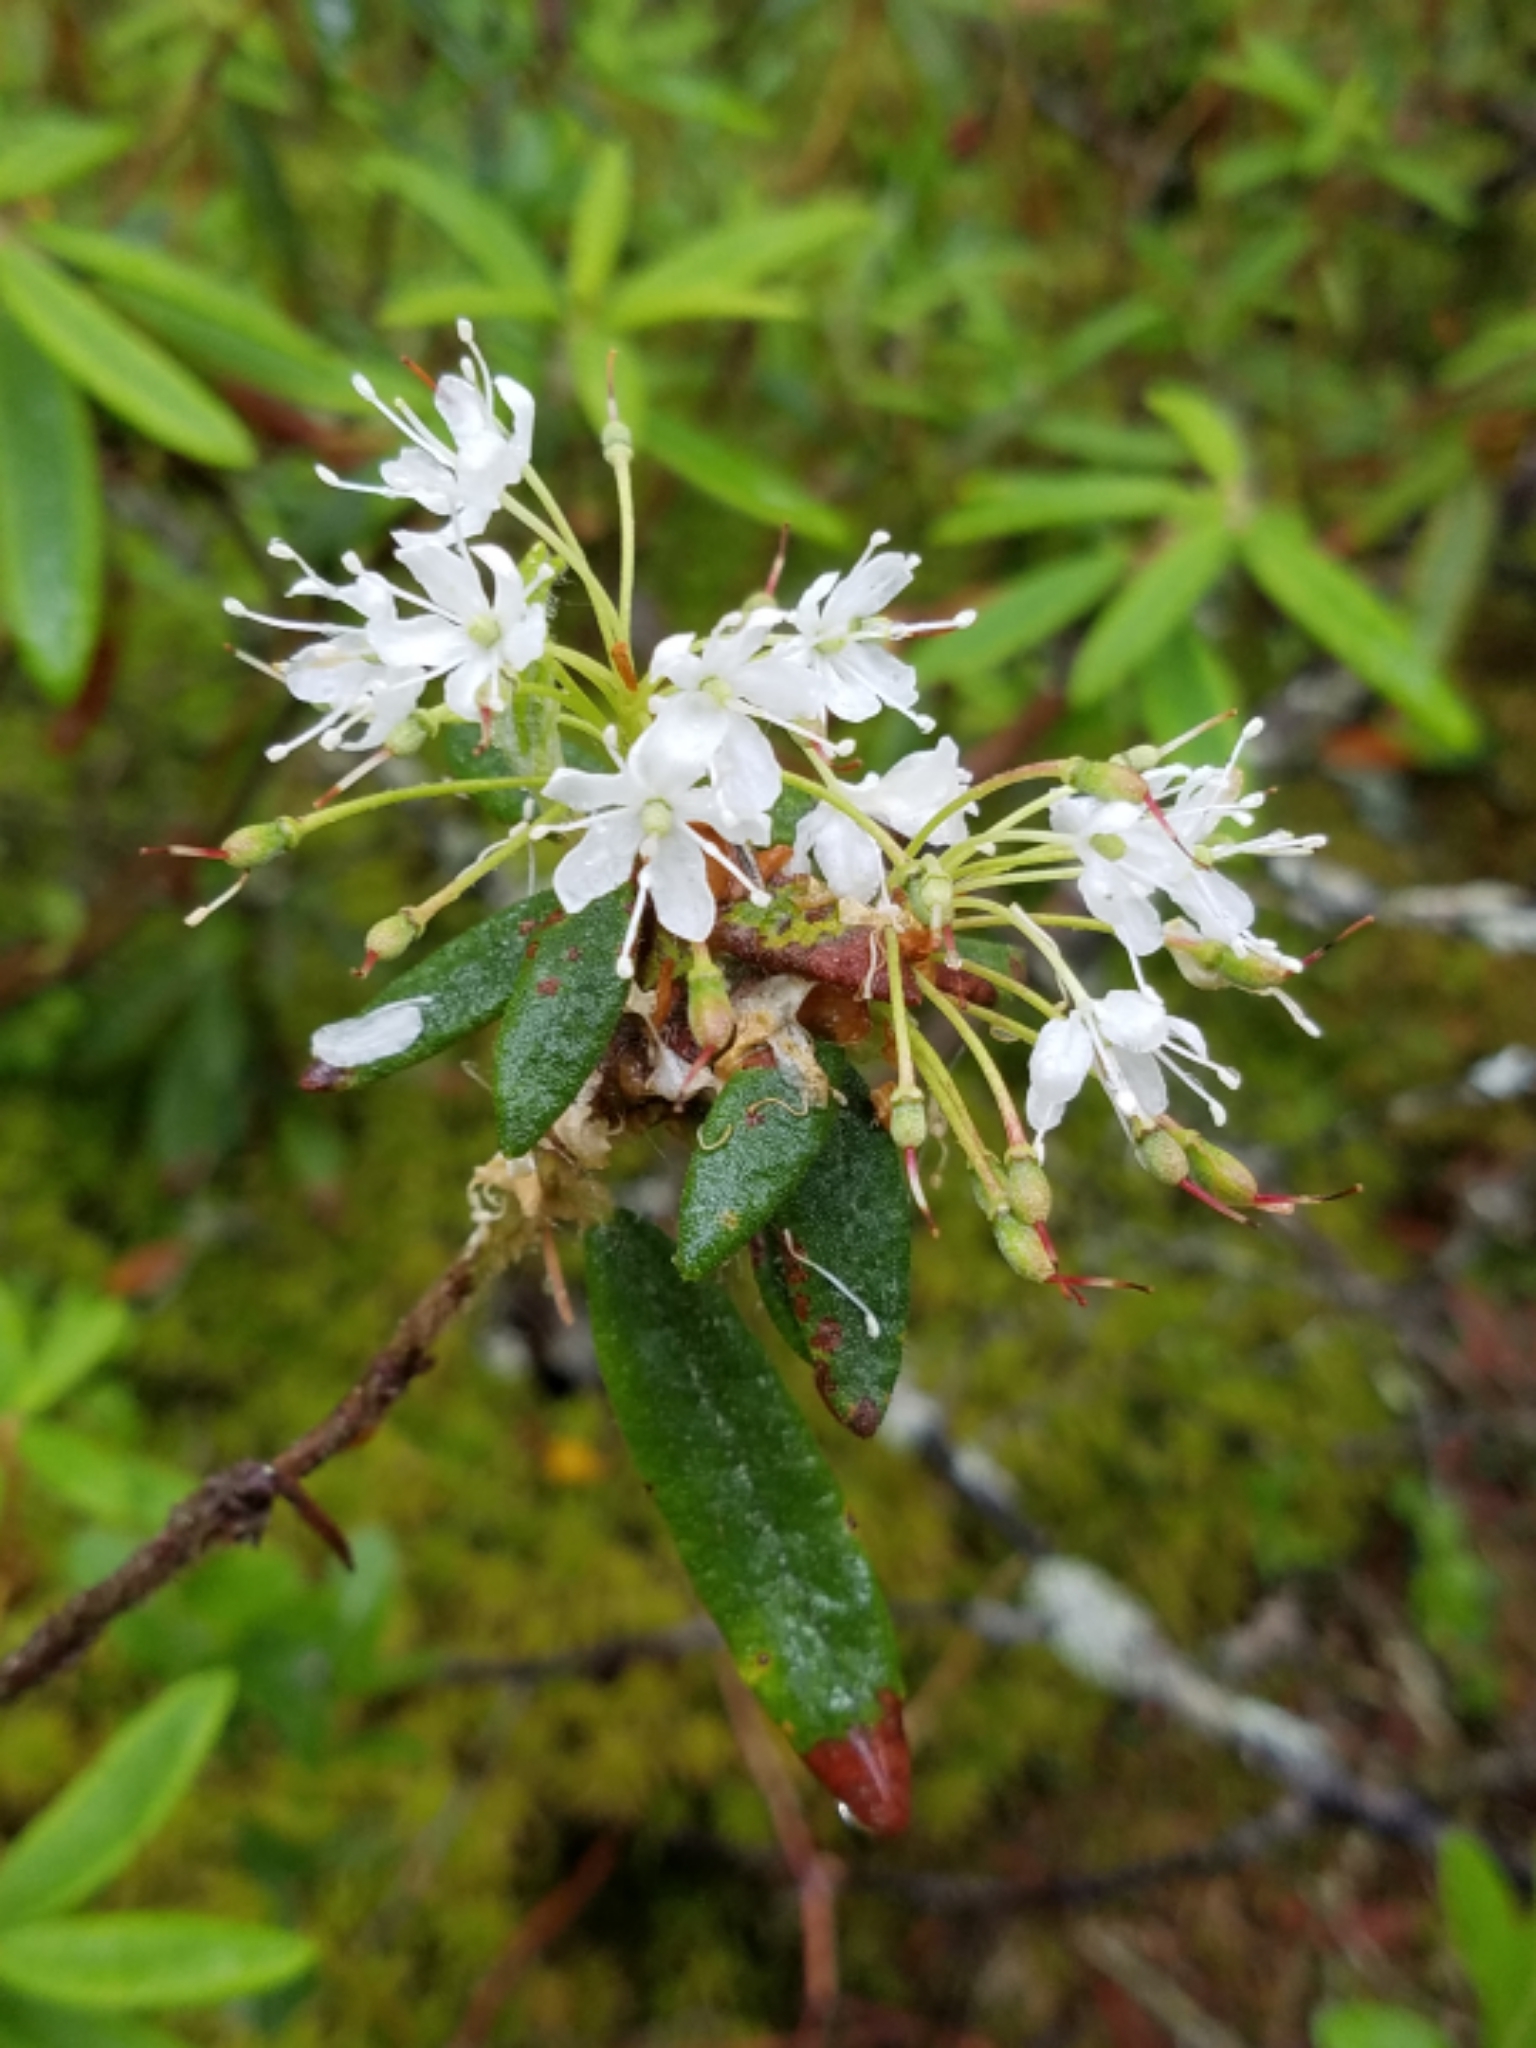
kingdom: Plantae
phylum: Tracheophyta
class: Magnoliopsida
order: Ericales
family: Ericaceae
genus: Rhododendron
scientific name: Rhododendron groenlandicum
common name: Bog labrador tea
